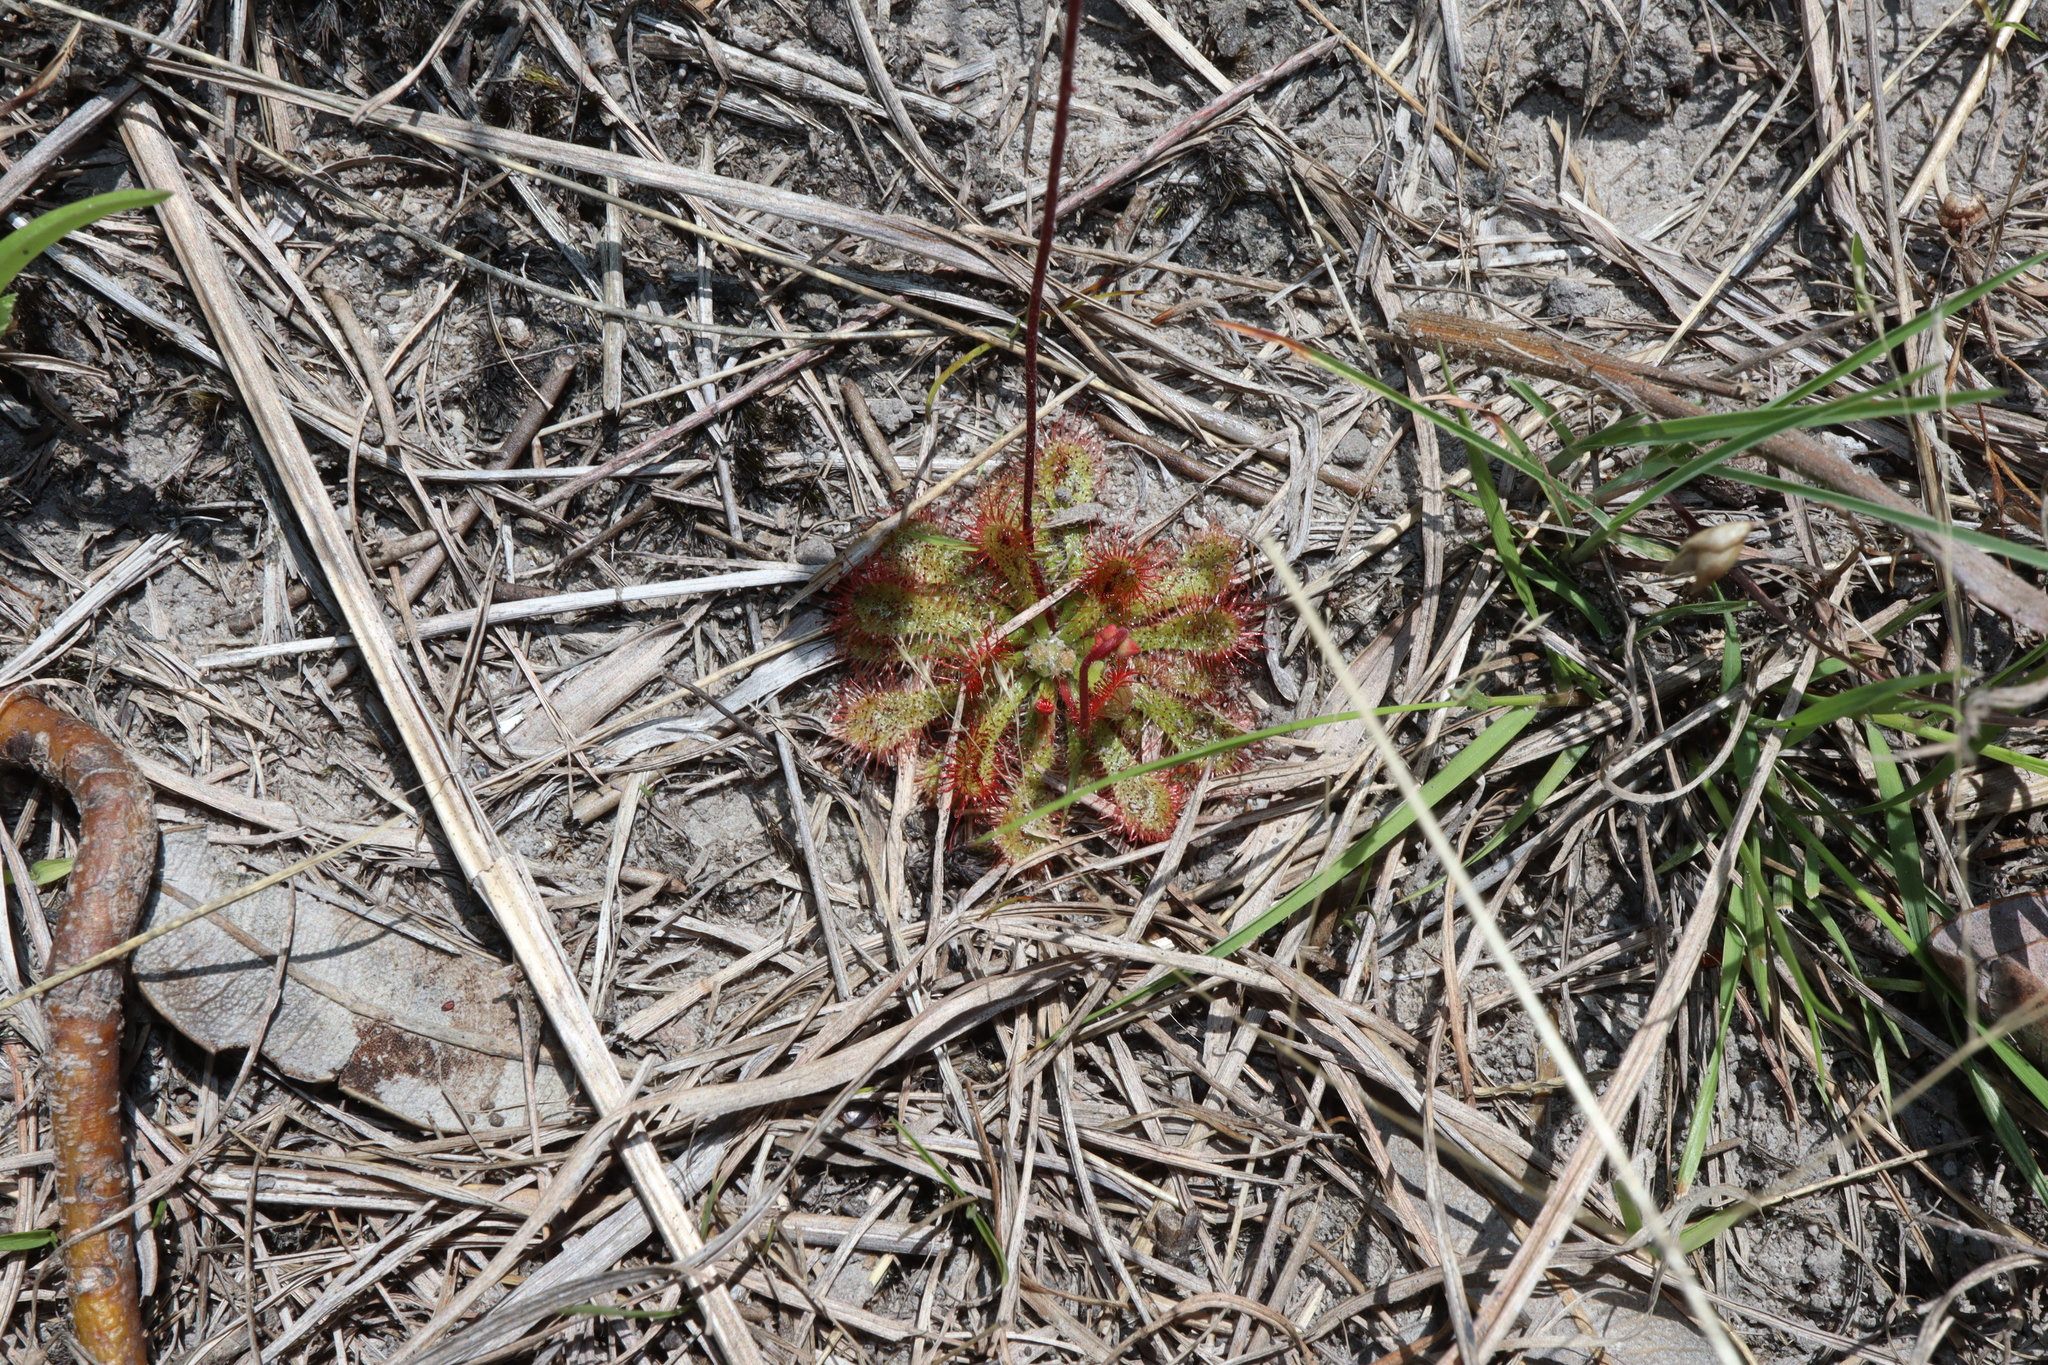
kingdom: Plantae
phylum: Tracheophyta
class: Magnoliopsida
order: Caryophyllales
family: Droseraceae
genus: Drosera
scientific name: Drosera spatulata
